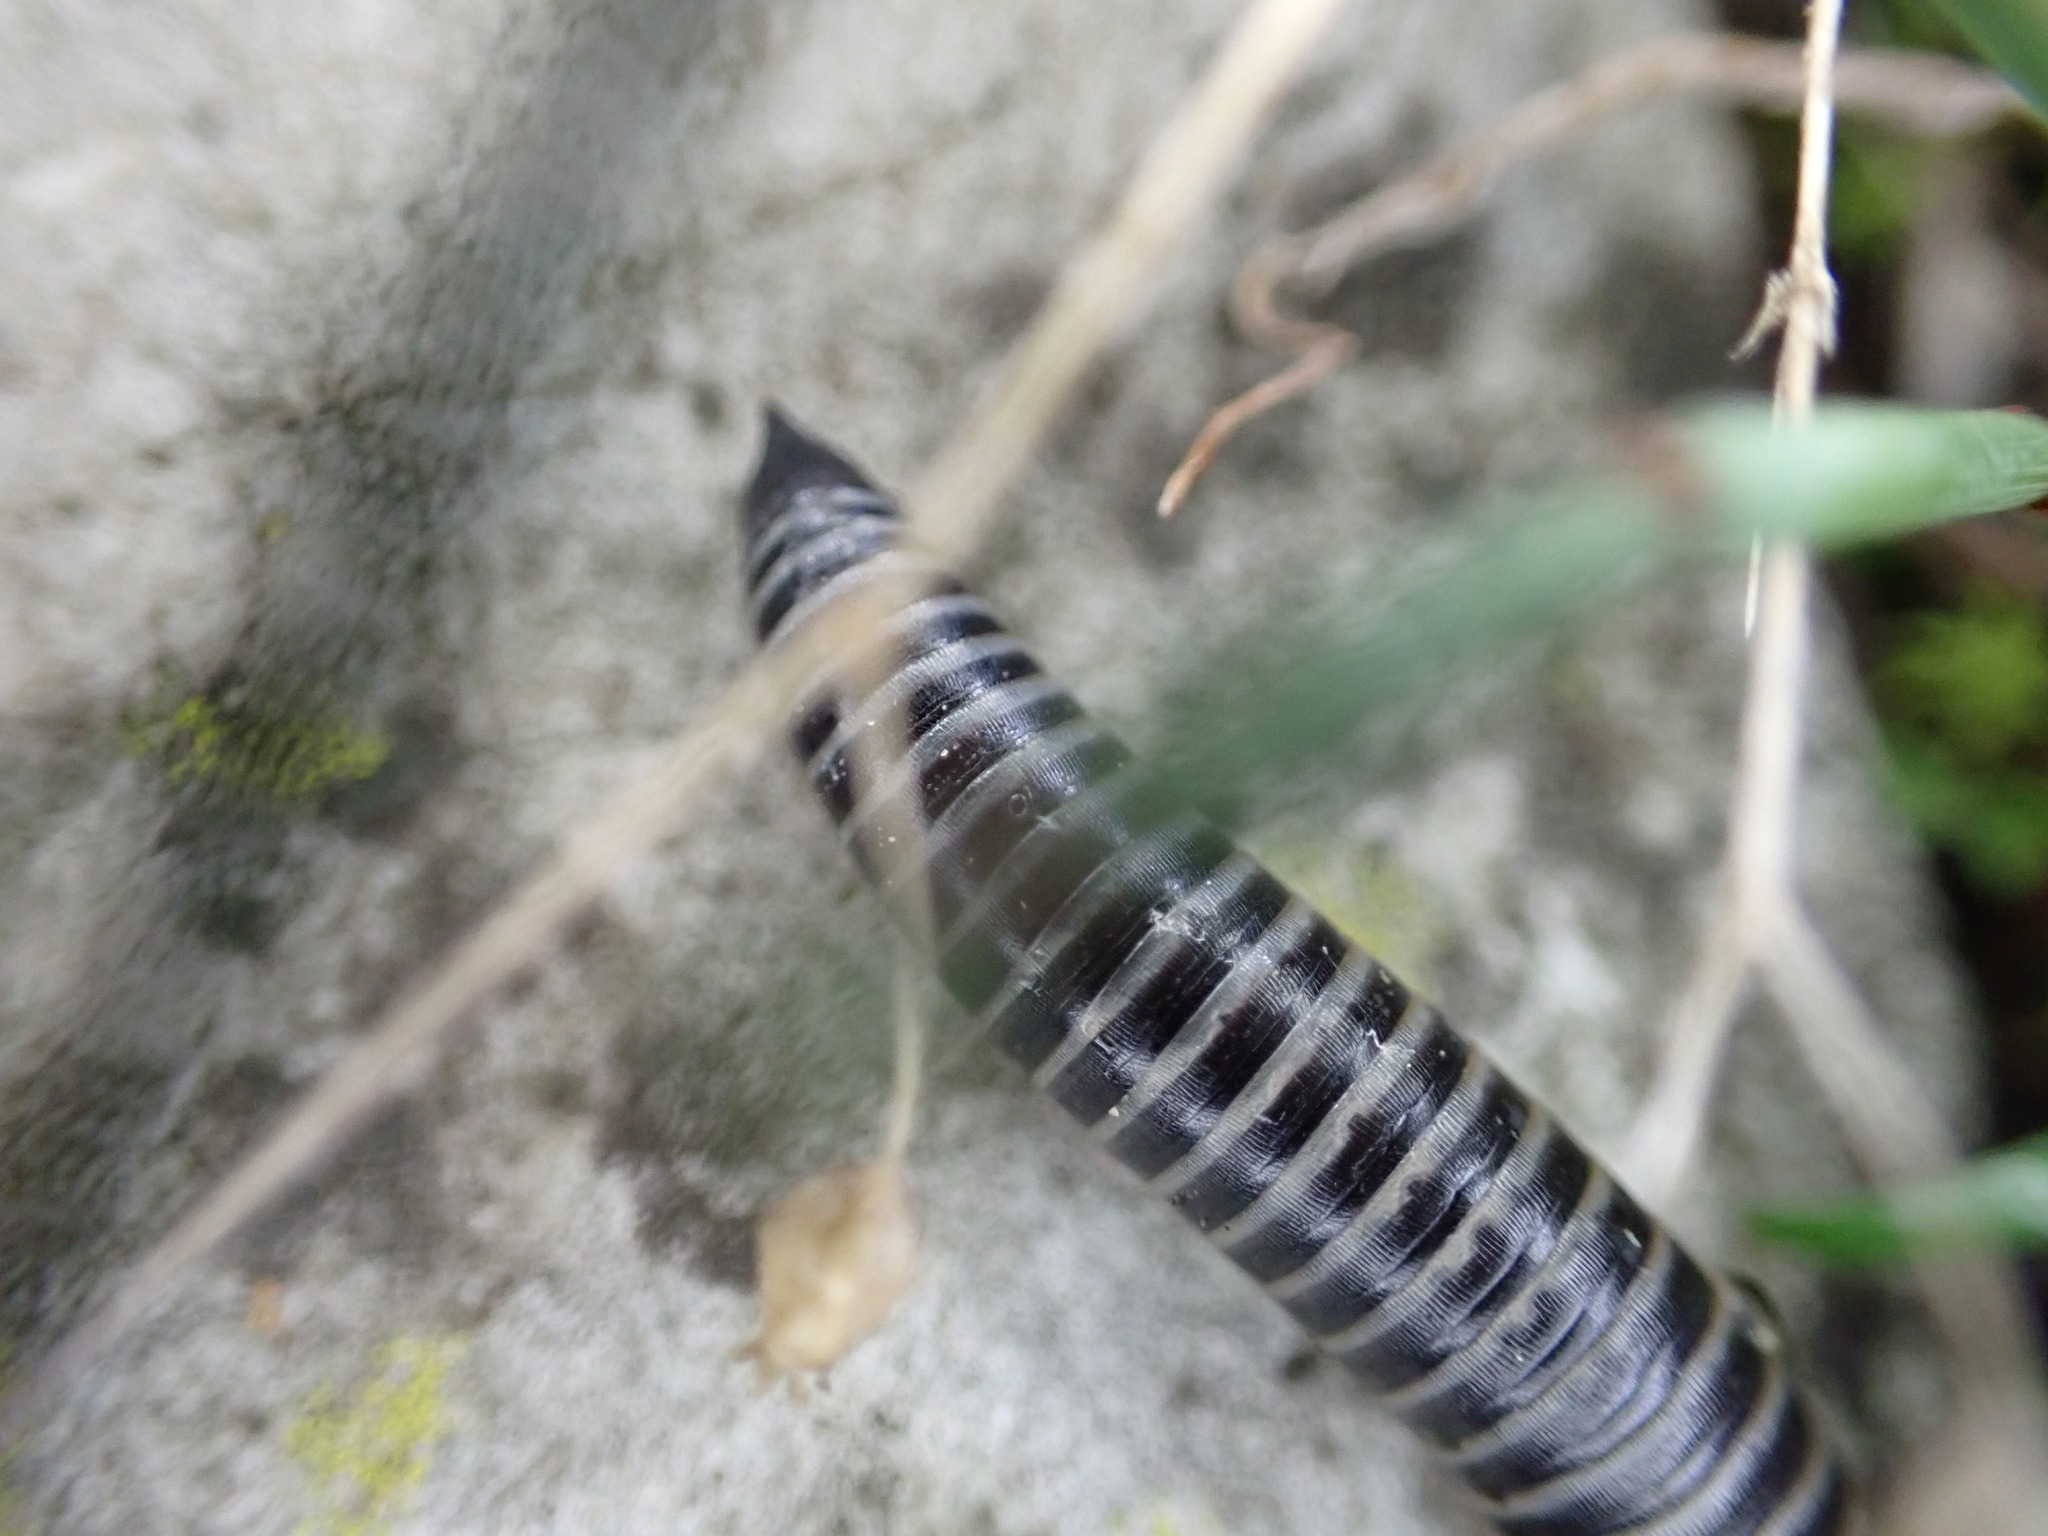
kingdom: Animalia
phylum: Arthropoda
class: Diplopoda
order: Julida
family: Julidae
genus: Ommatoiulus
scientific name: Ommatoiulus sabulosus
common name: Striped millipede
